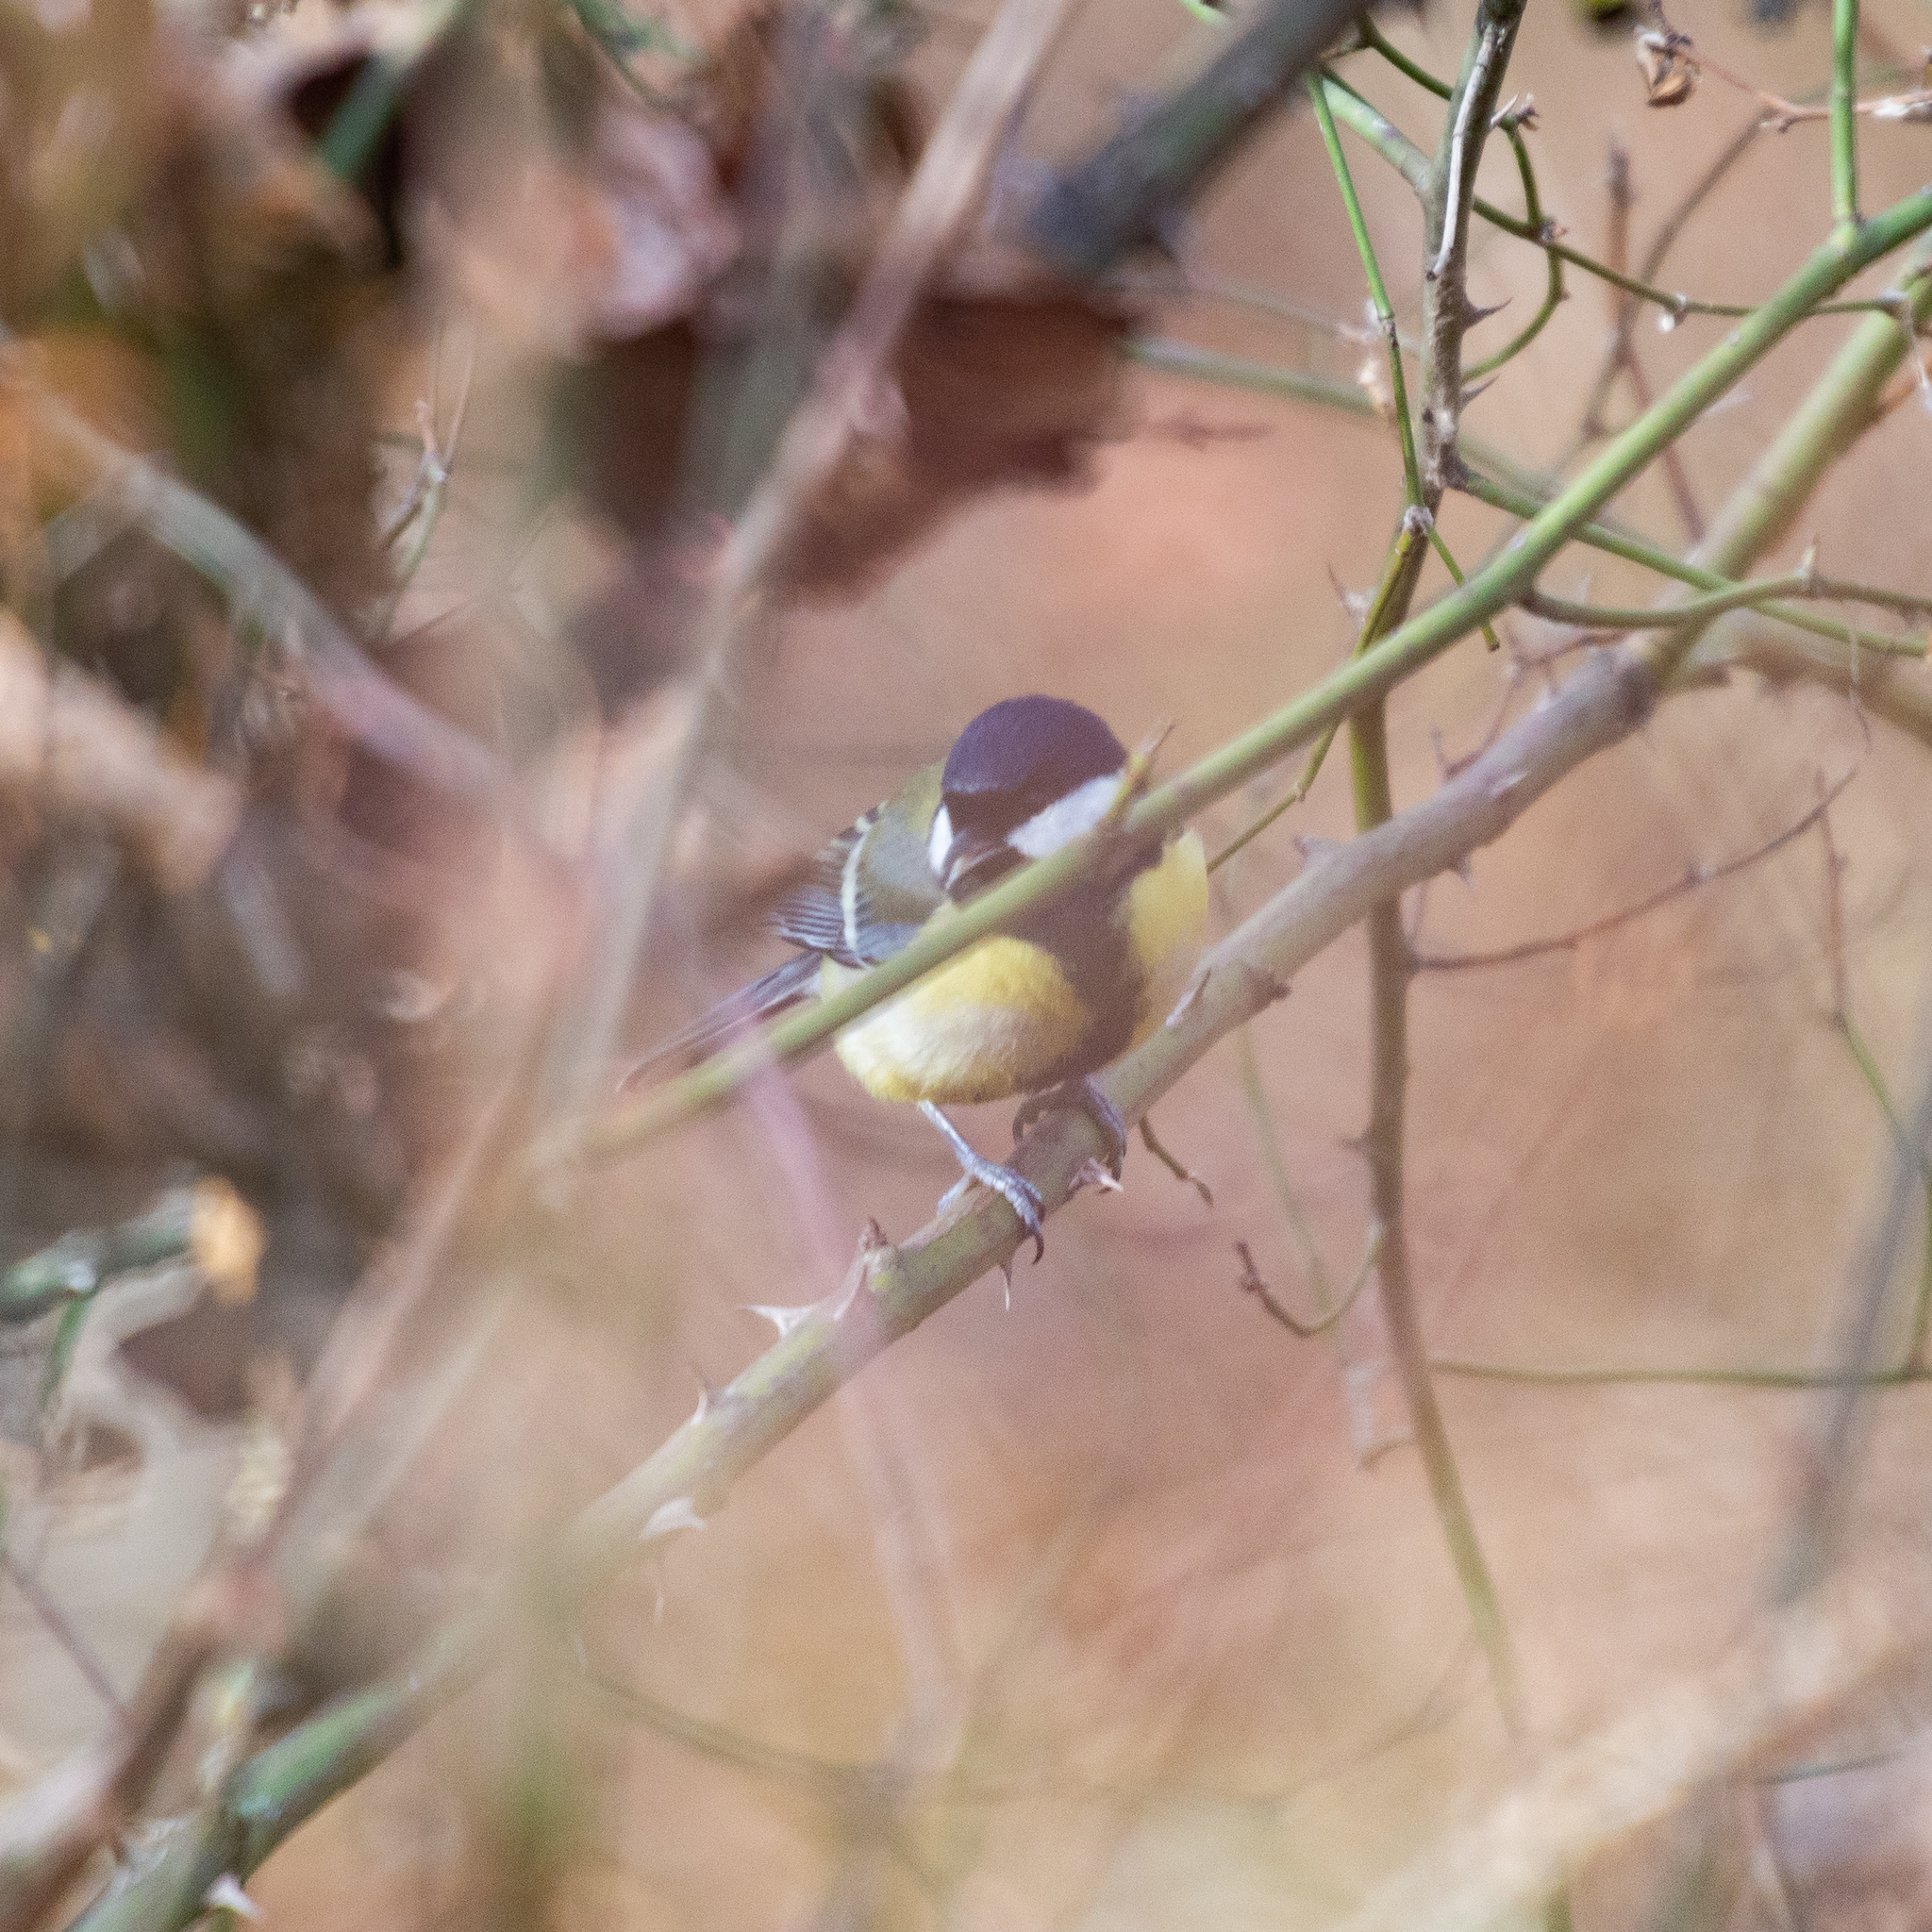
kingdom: Animalia
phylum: Chordata
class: Aves
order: Passeriformes
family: Paridae
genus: Parus
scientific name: Parus major
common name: Great tit
